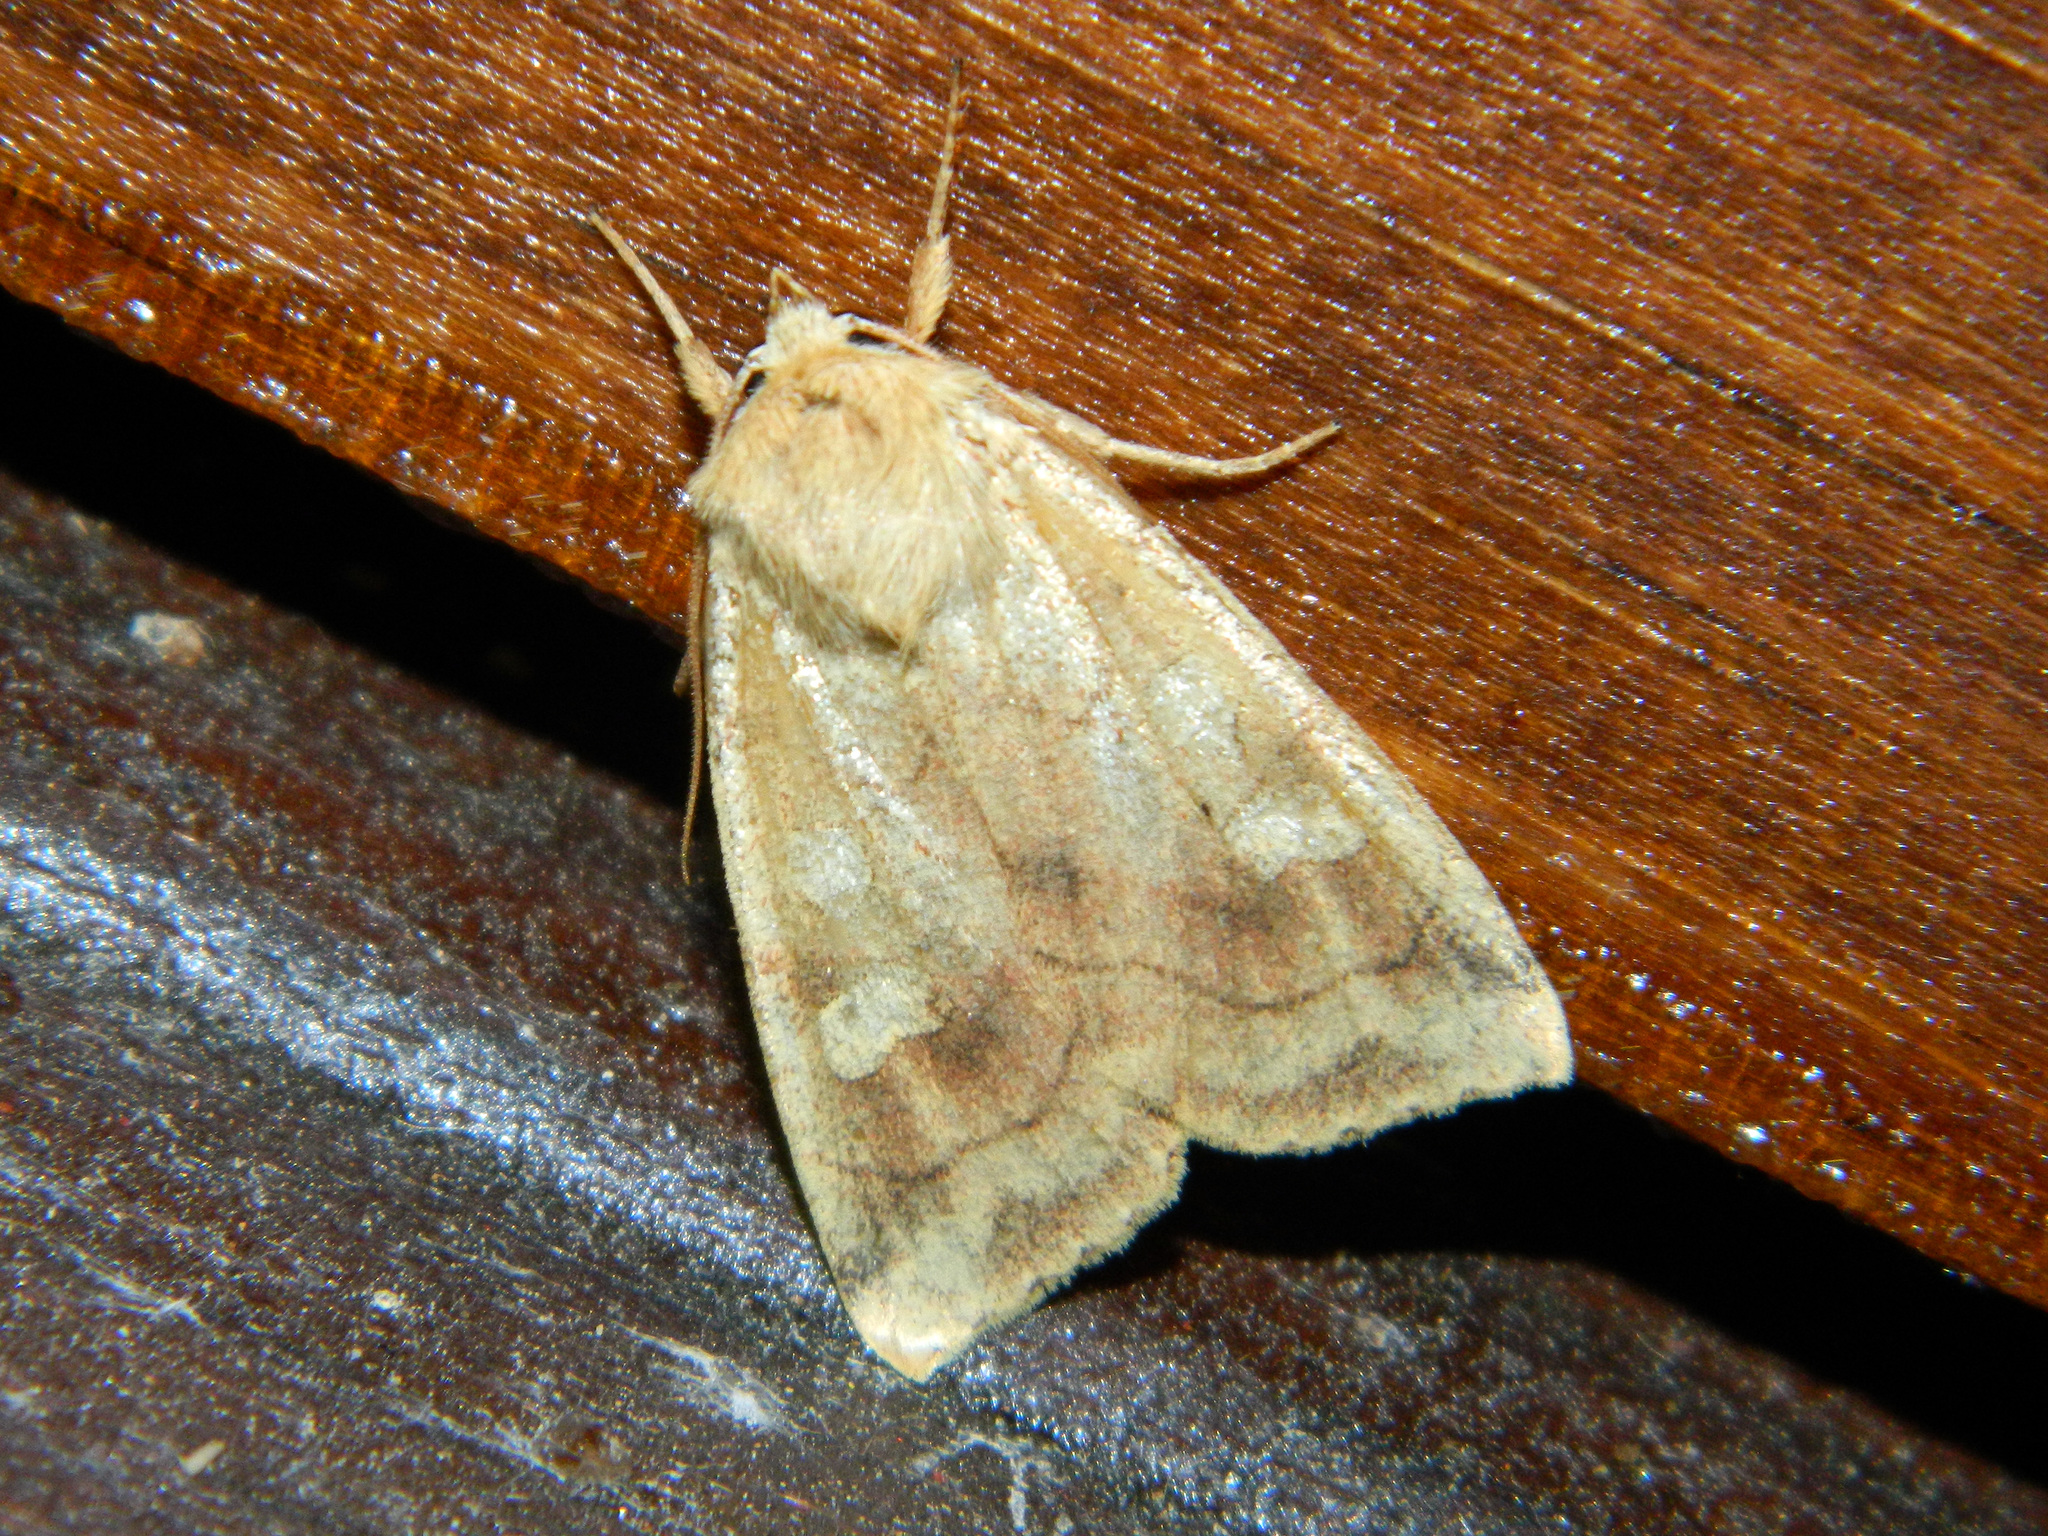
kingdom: Animalia
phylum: Arthropoda
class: Insecta
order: Lepidoptera
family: Noctuidae
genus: Enargia
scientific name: Enargia decolor
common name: Aspen twoleaf tier moth
